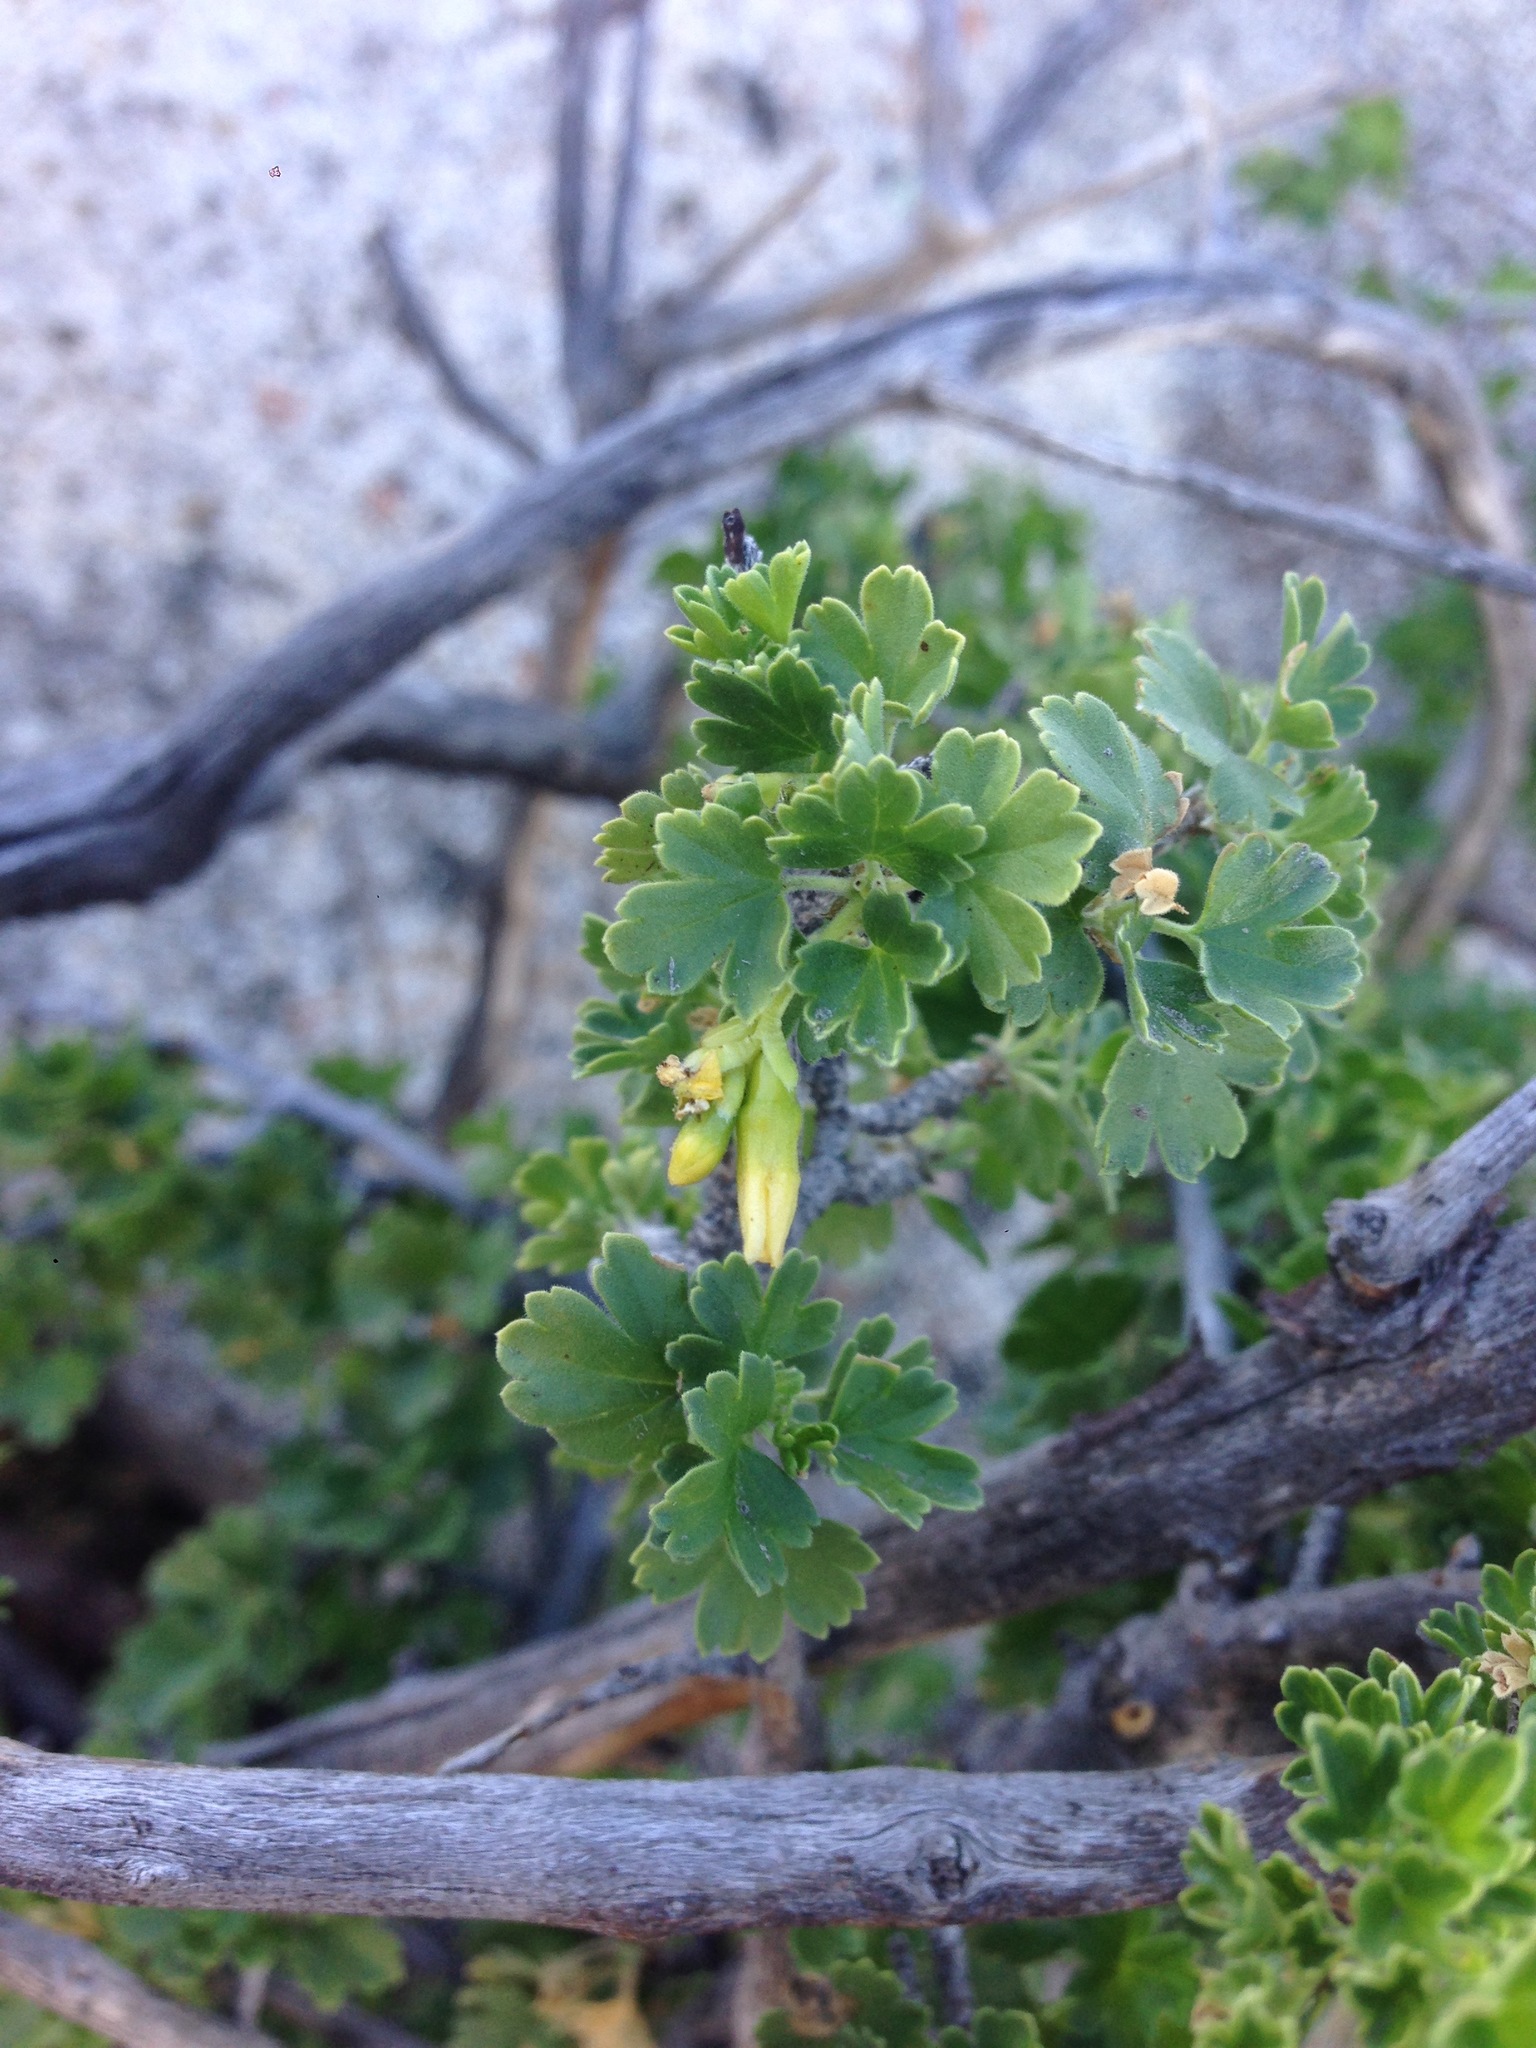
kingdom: Plantae
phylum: Tracheophyta
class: Magnoliopsida
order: Saxifragales
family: Grossulariaceae
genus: Ribes
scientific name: Ribes quercetorum
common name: Oak gooseberry
